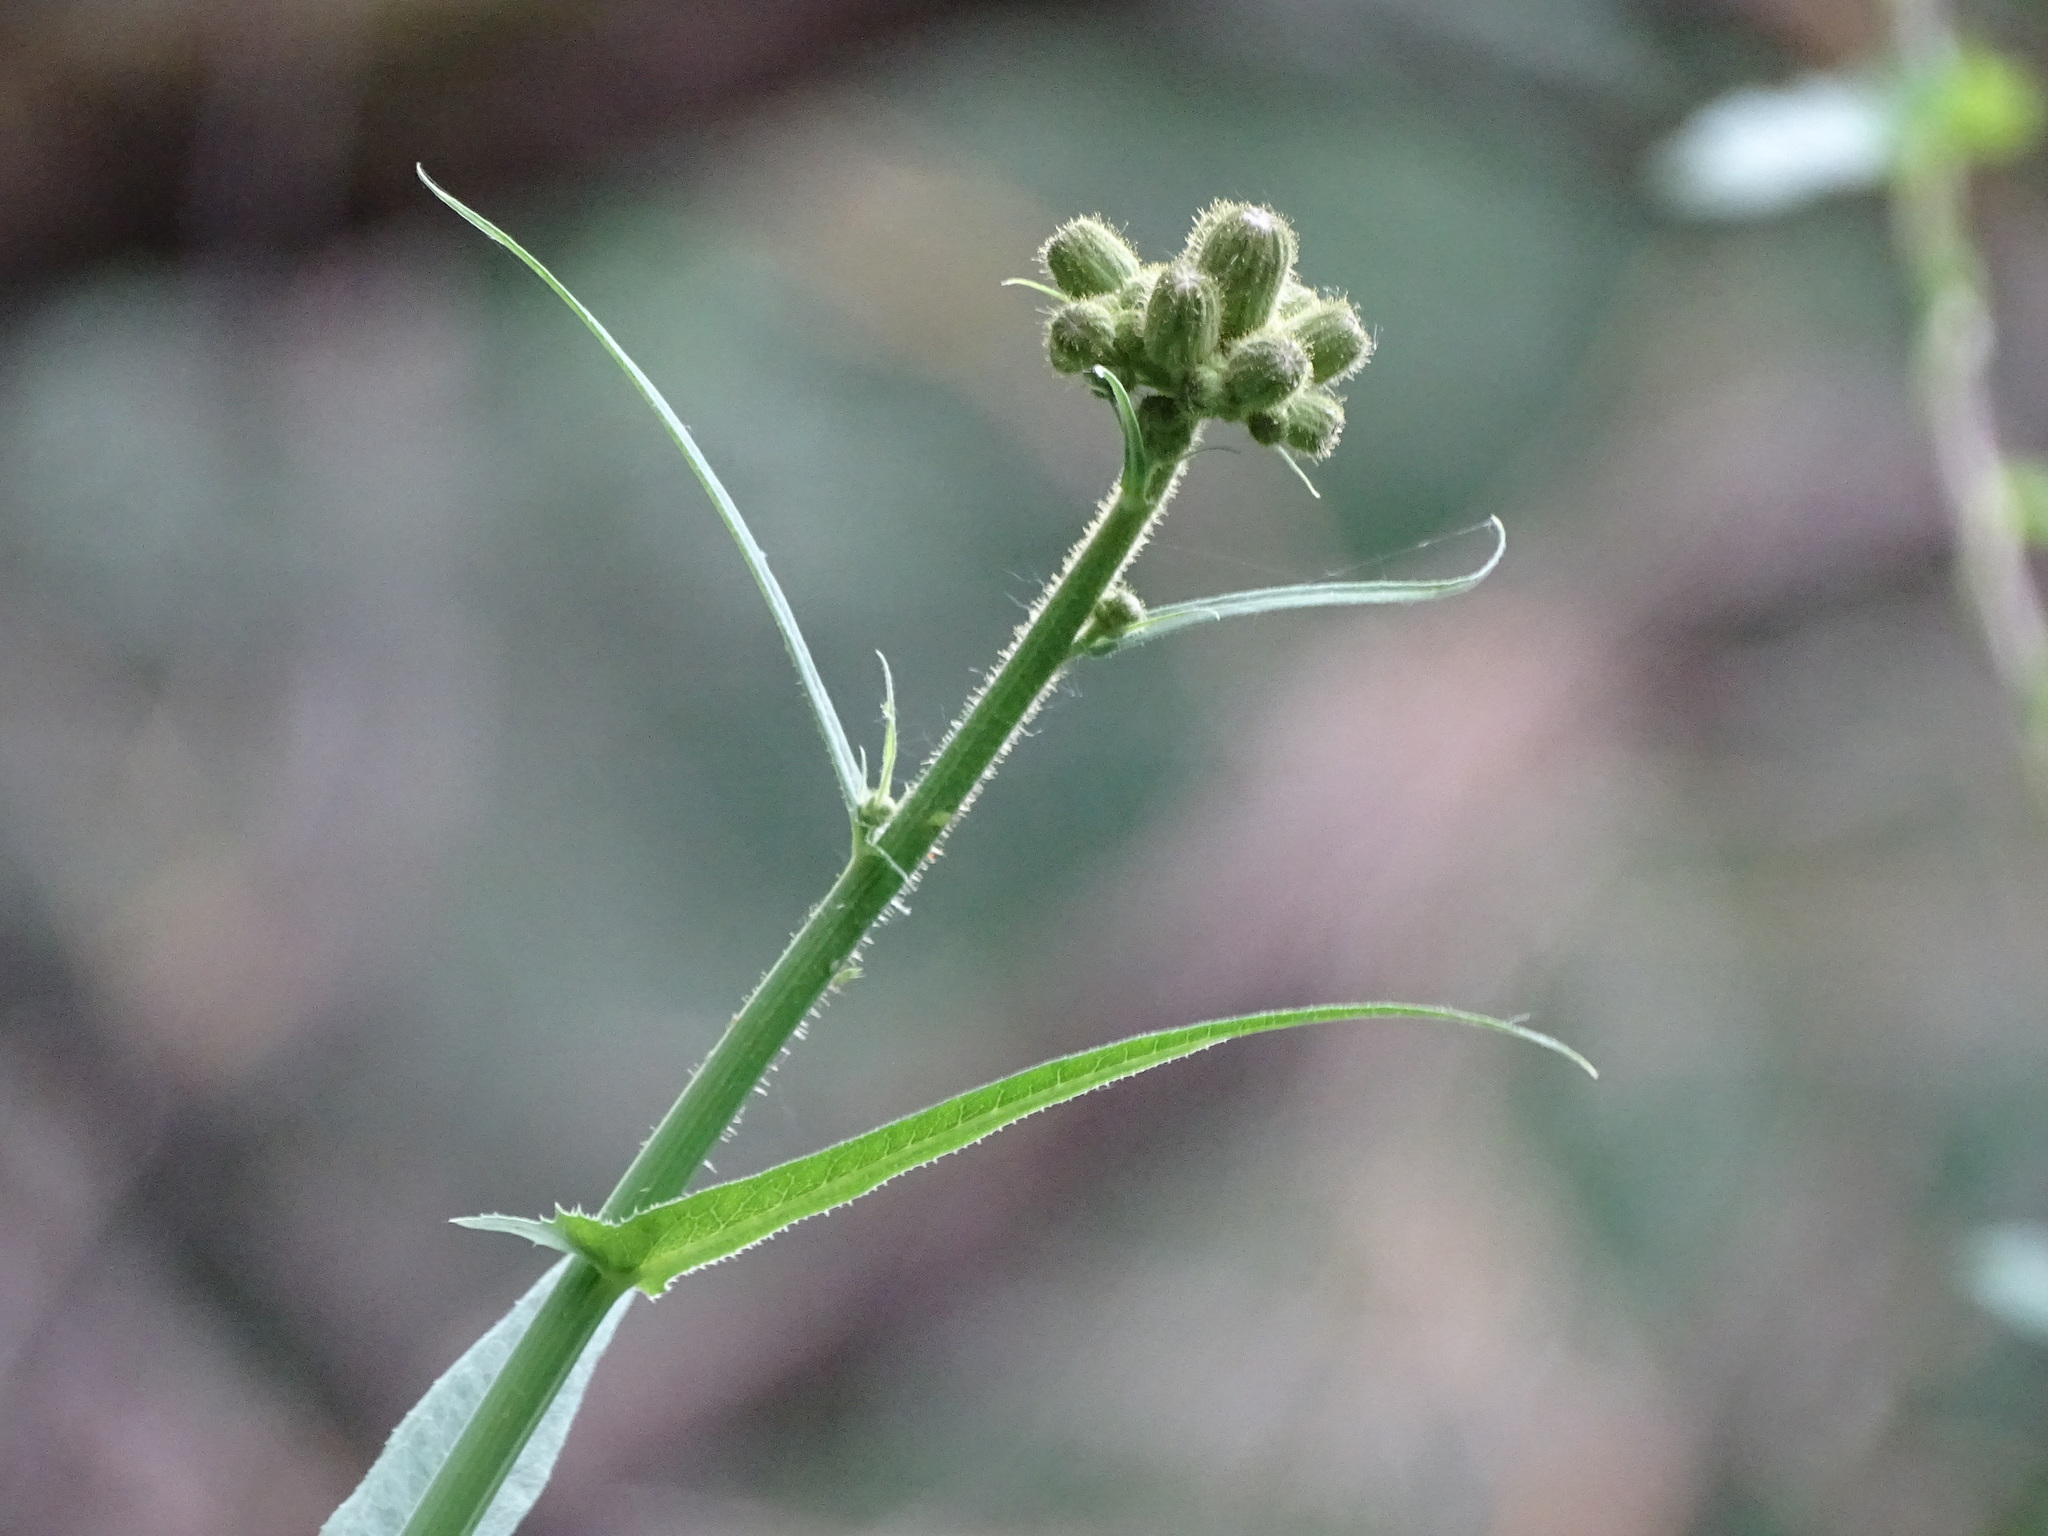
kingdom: Plantae
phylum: Tracheophyta
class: Magnoliopsida
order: Asterales
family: Asteraceae
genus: Sonchus
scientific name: Sonchus palustris
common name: Marsh sow-thistle
